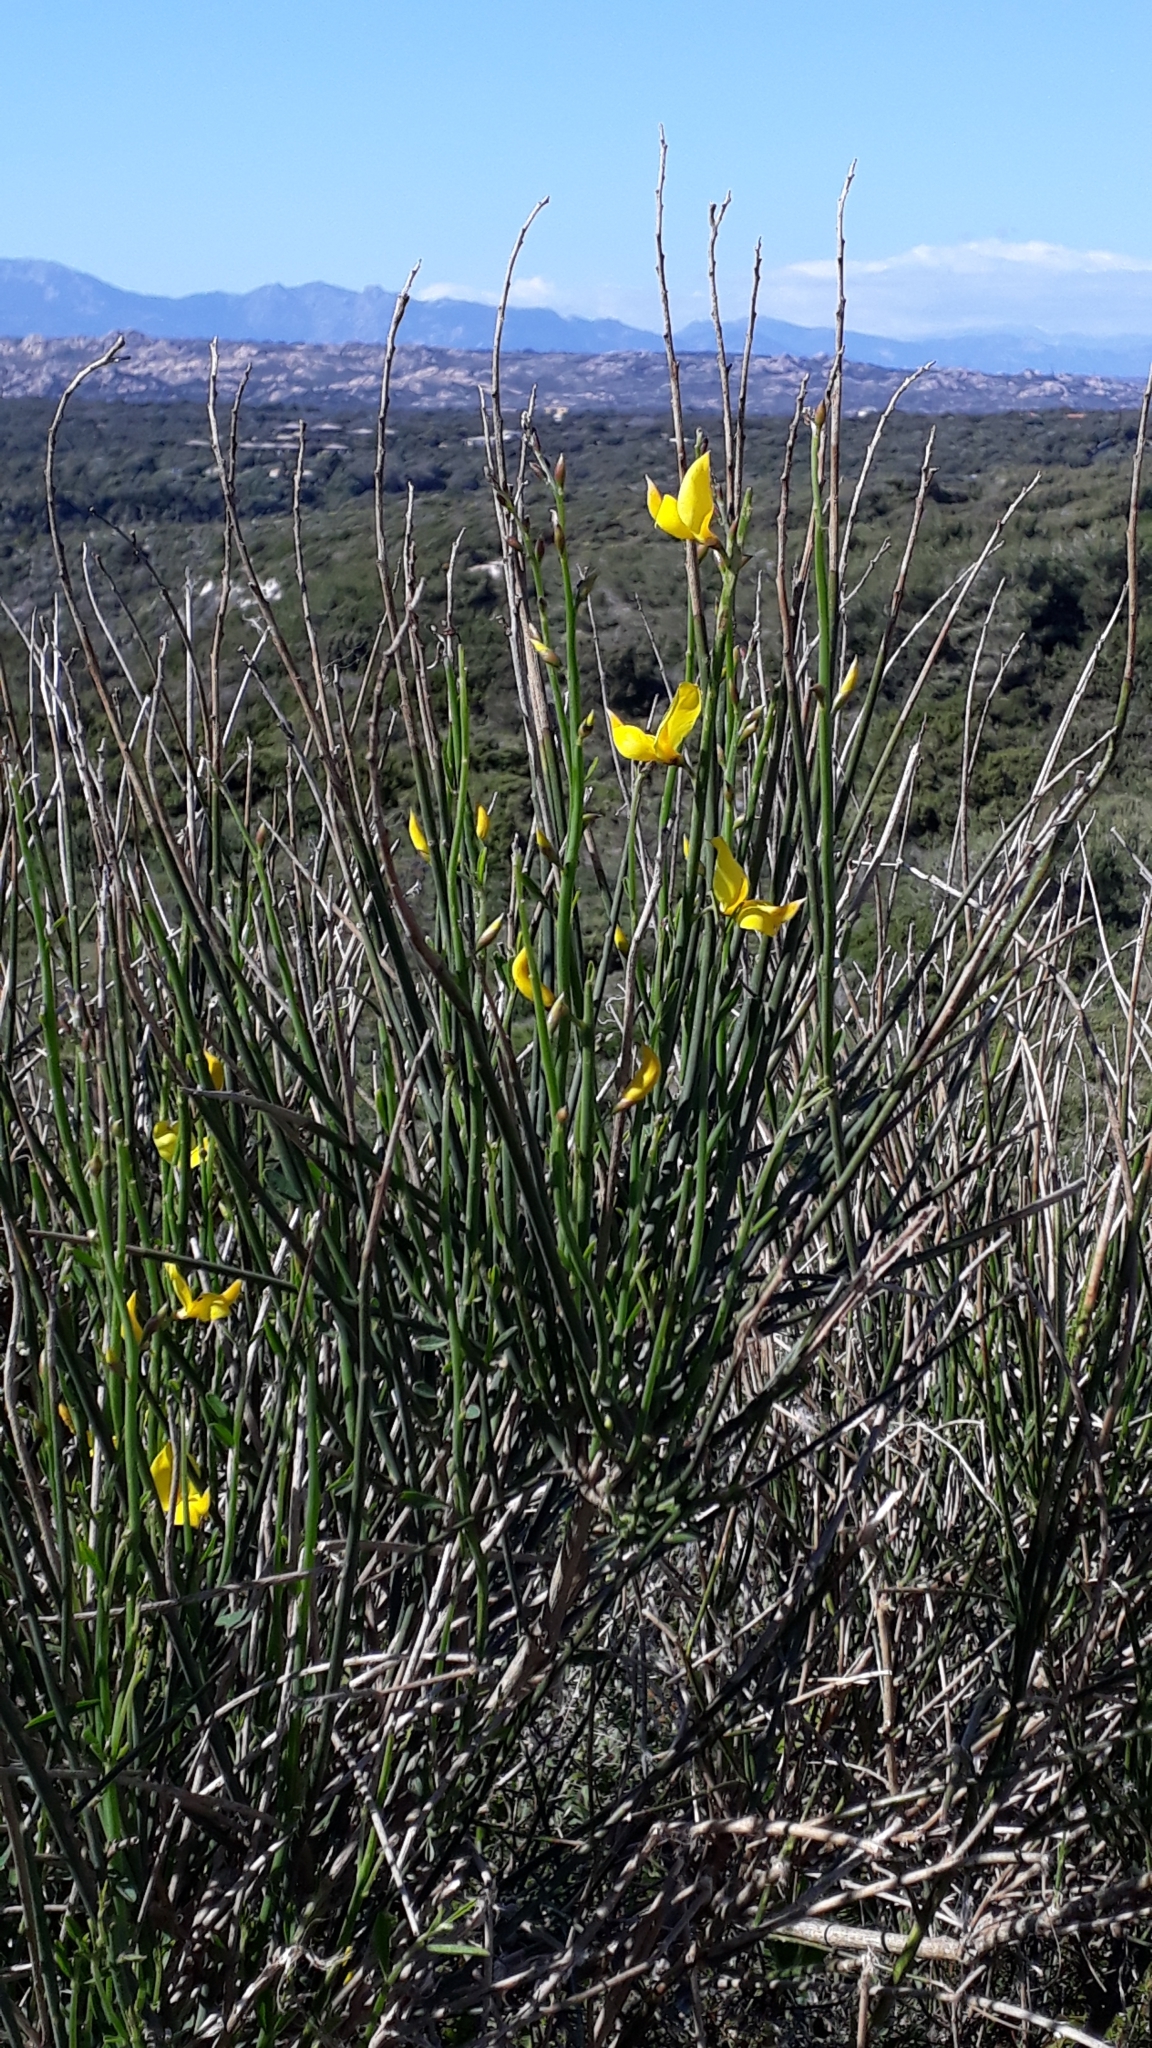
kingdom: Plantae
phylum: Tracheophyta
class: Magnoliopsida
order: Fabales
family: Fabaceae
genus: Spartium
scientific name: Spartium junceum
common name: Spanish broom
